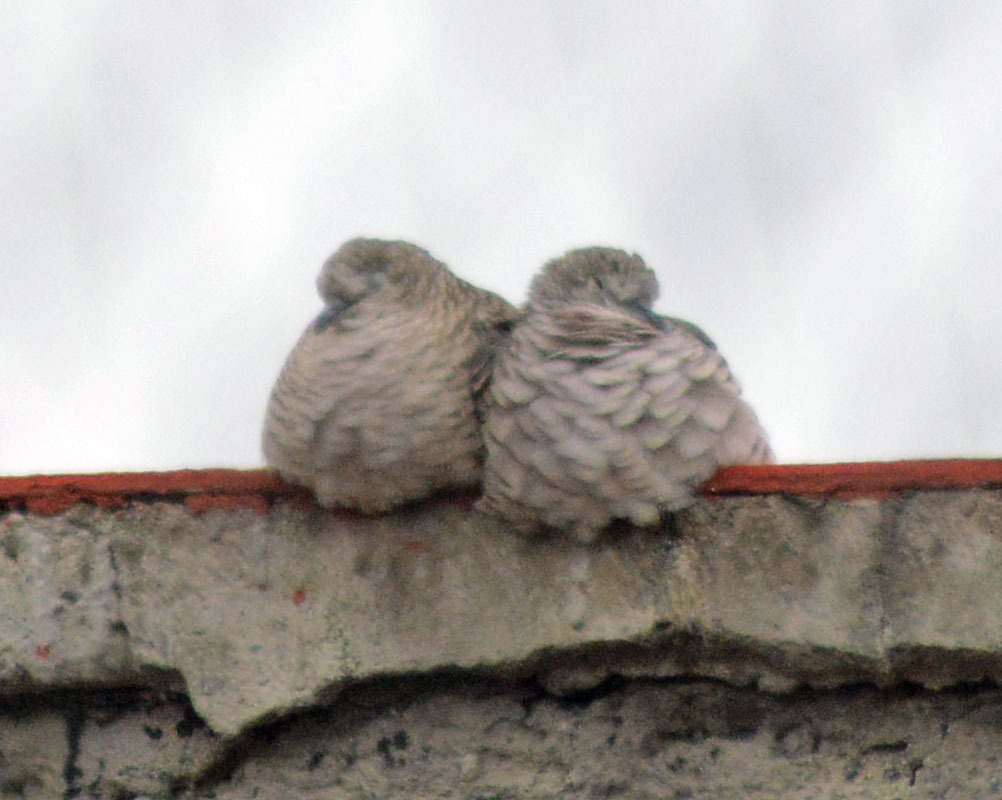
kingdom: Animalia
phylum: Chordata
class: Aves
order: Columbiformes
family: Columbidae
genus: Columbina
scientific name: Columbina inca
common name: Inca dove
